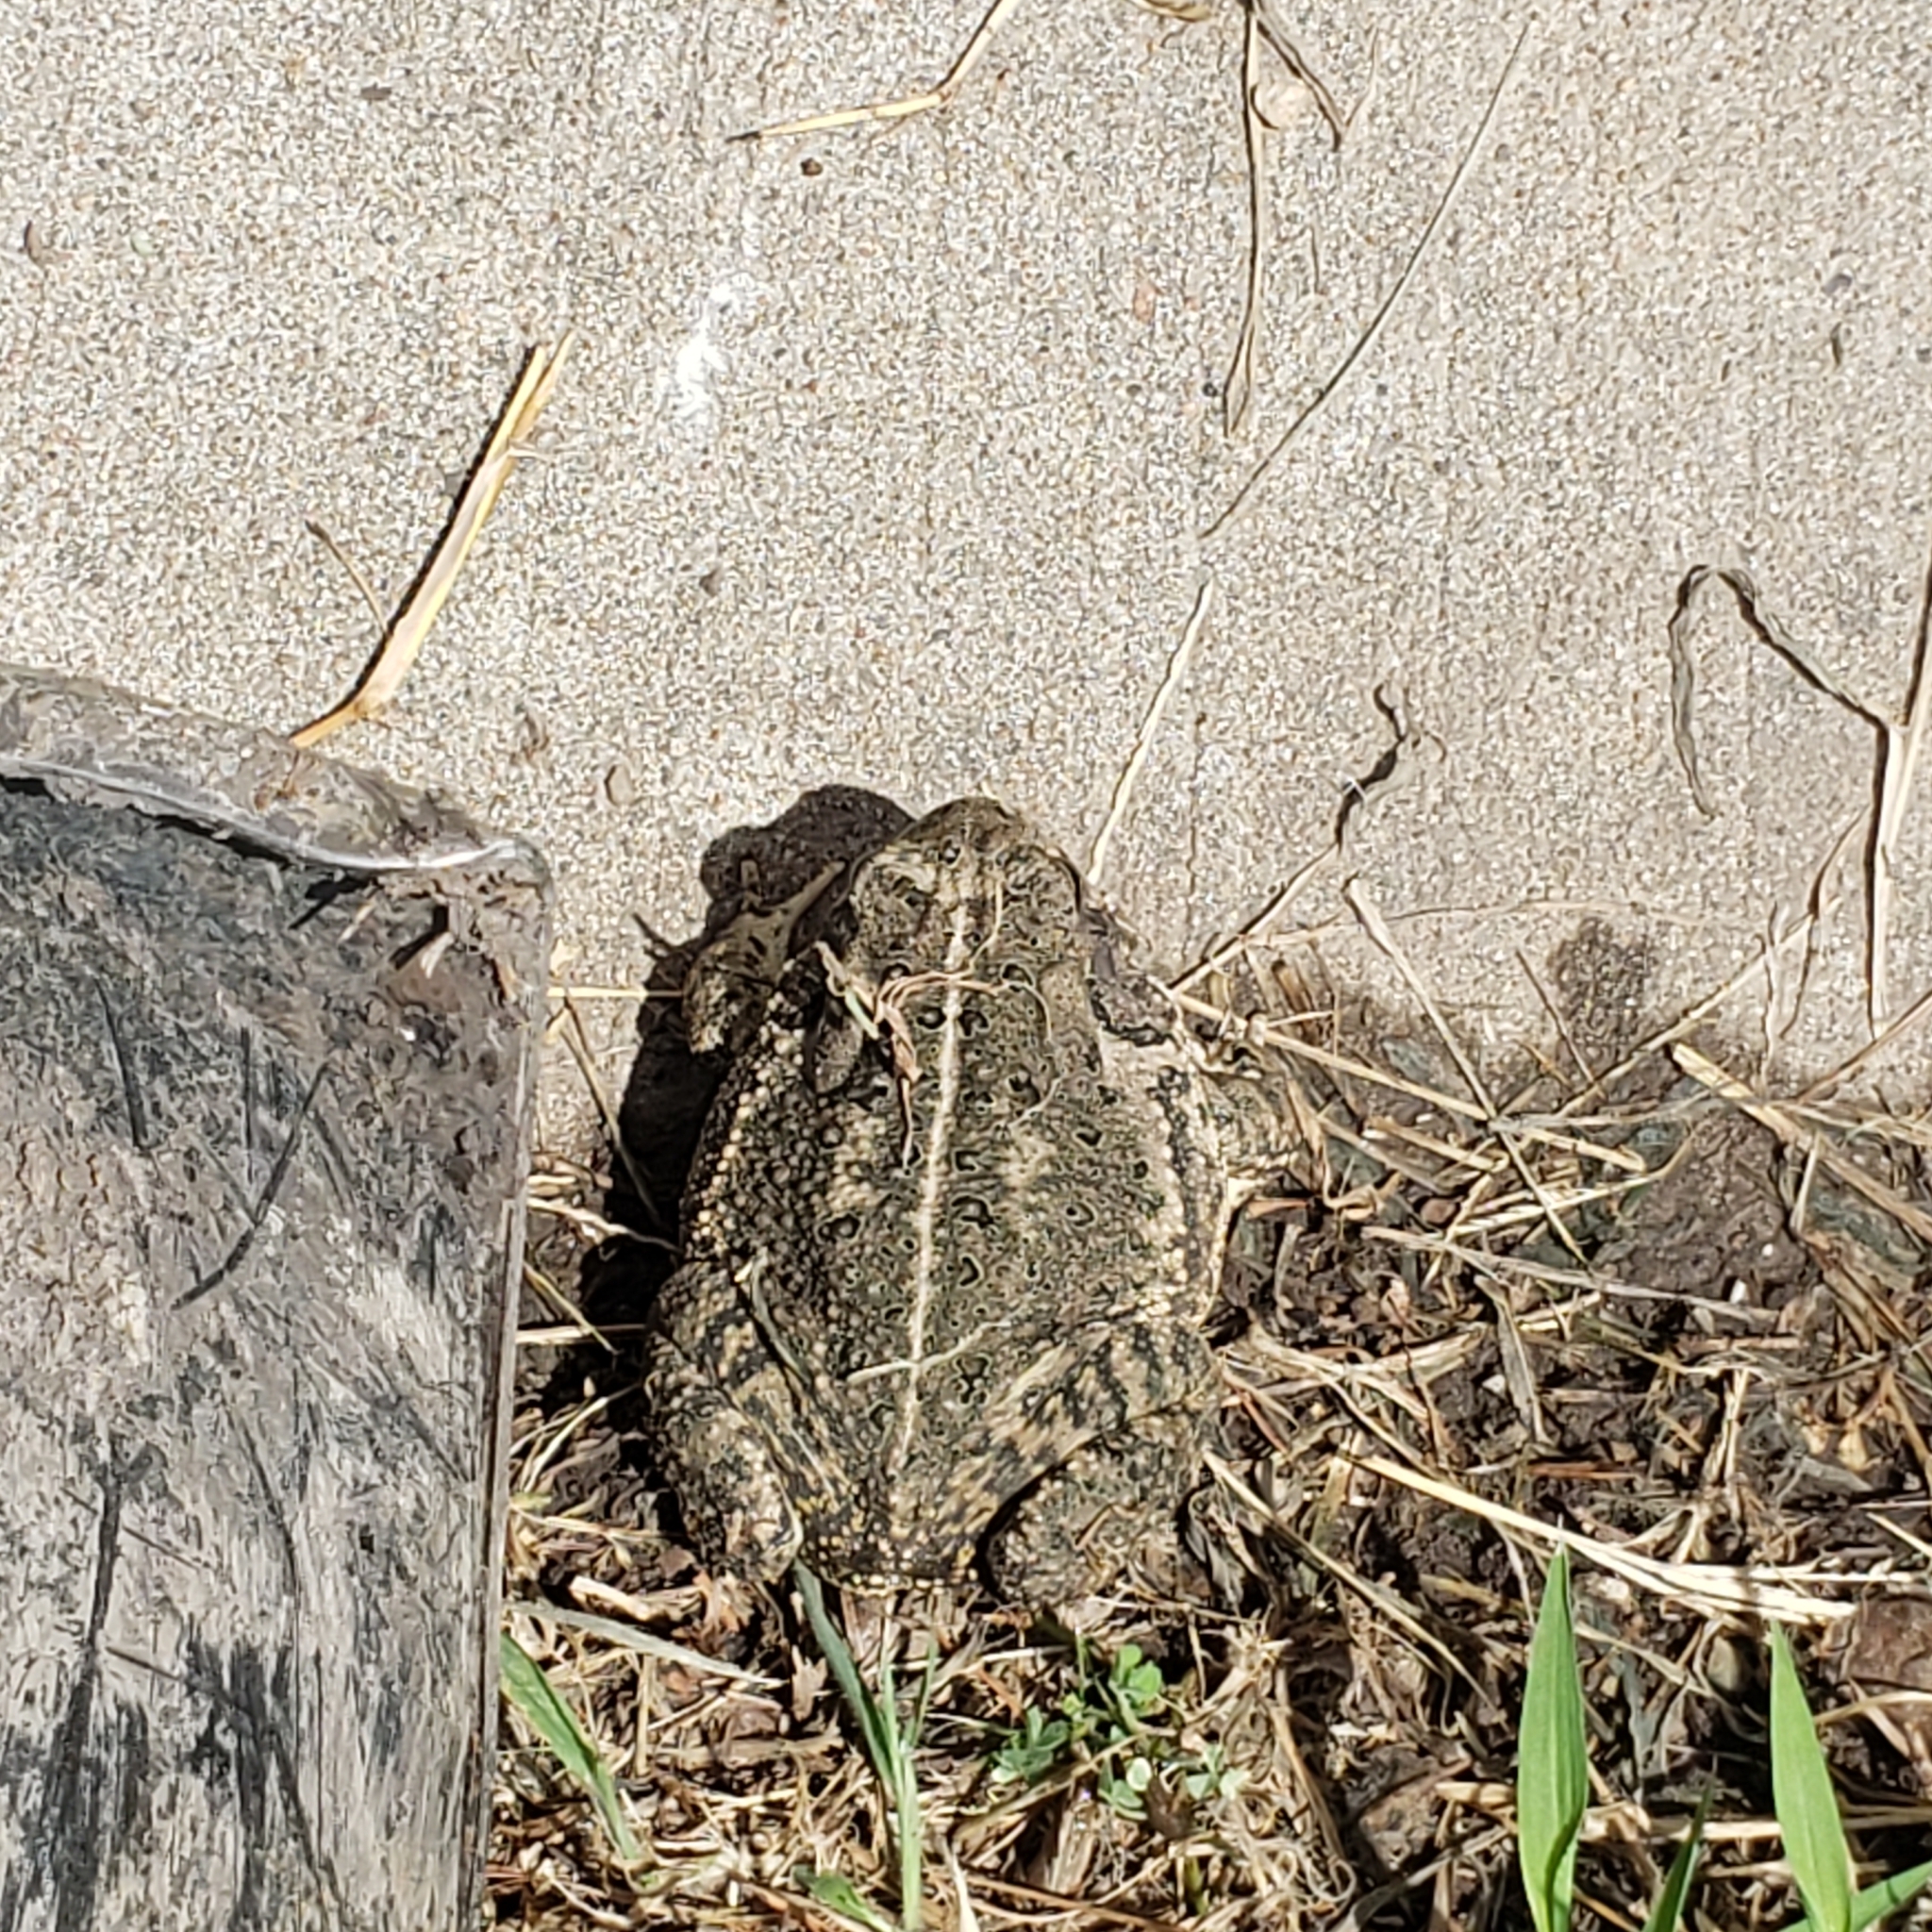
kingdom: Animalia
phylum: Chordata
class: Amphibia
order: Anura
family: Bufonidae
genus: Anaxyrus
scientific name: Anaxyrus woodhousii
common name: Woodhouse's toad
